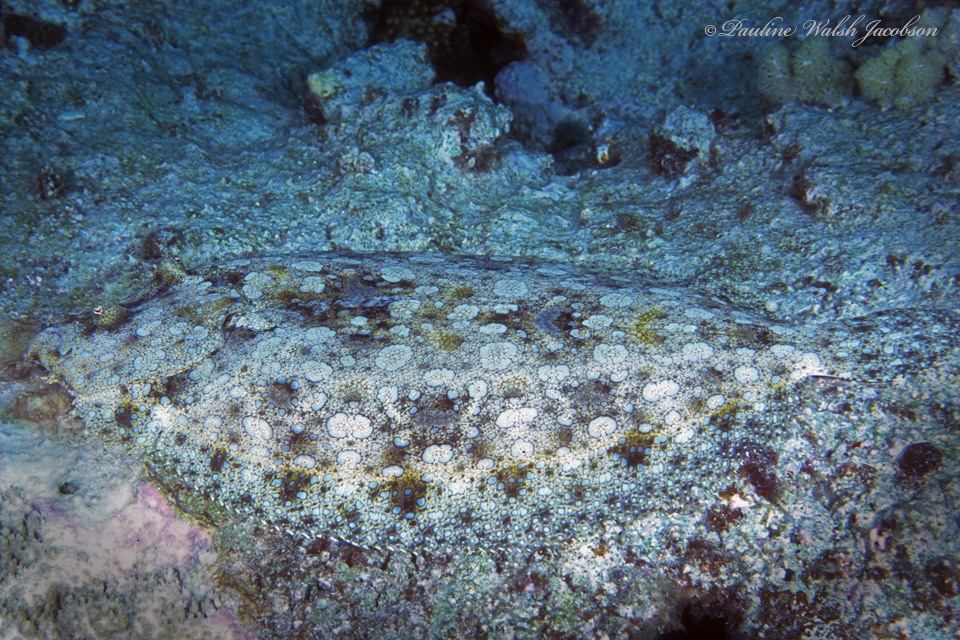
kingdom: Animalia
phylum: Chordata
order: Pleuronectiformes
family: Bothidae
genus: Bothus
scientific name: Bothus mancus
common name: Flowery flounder
